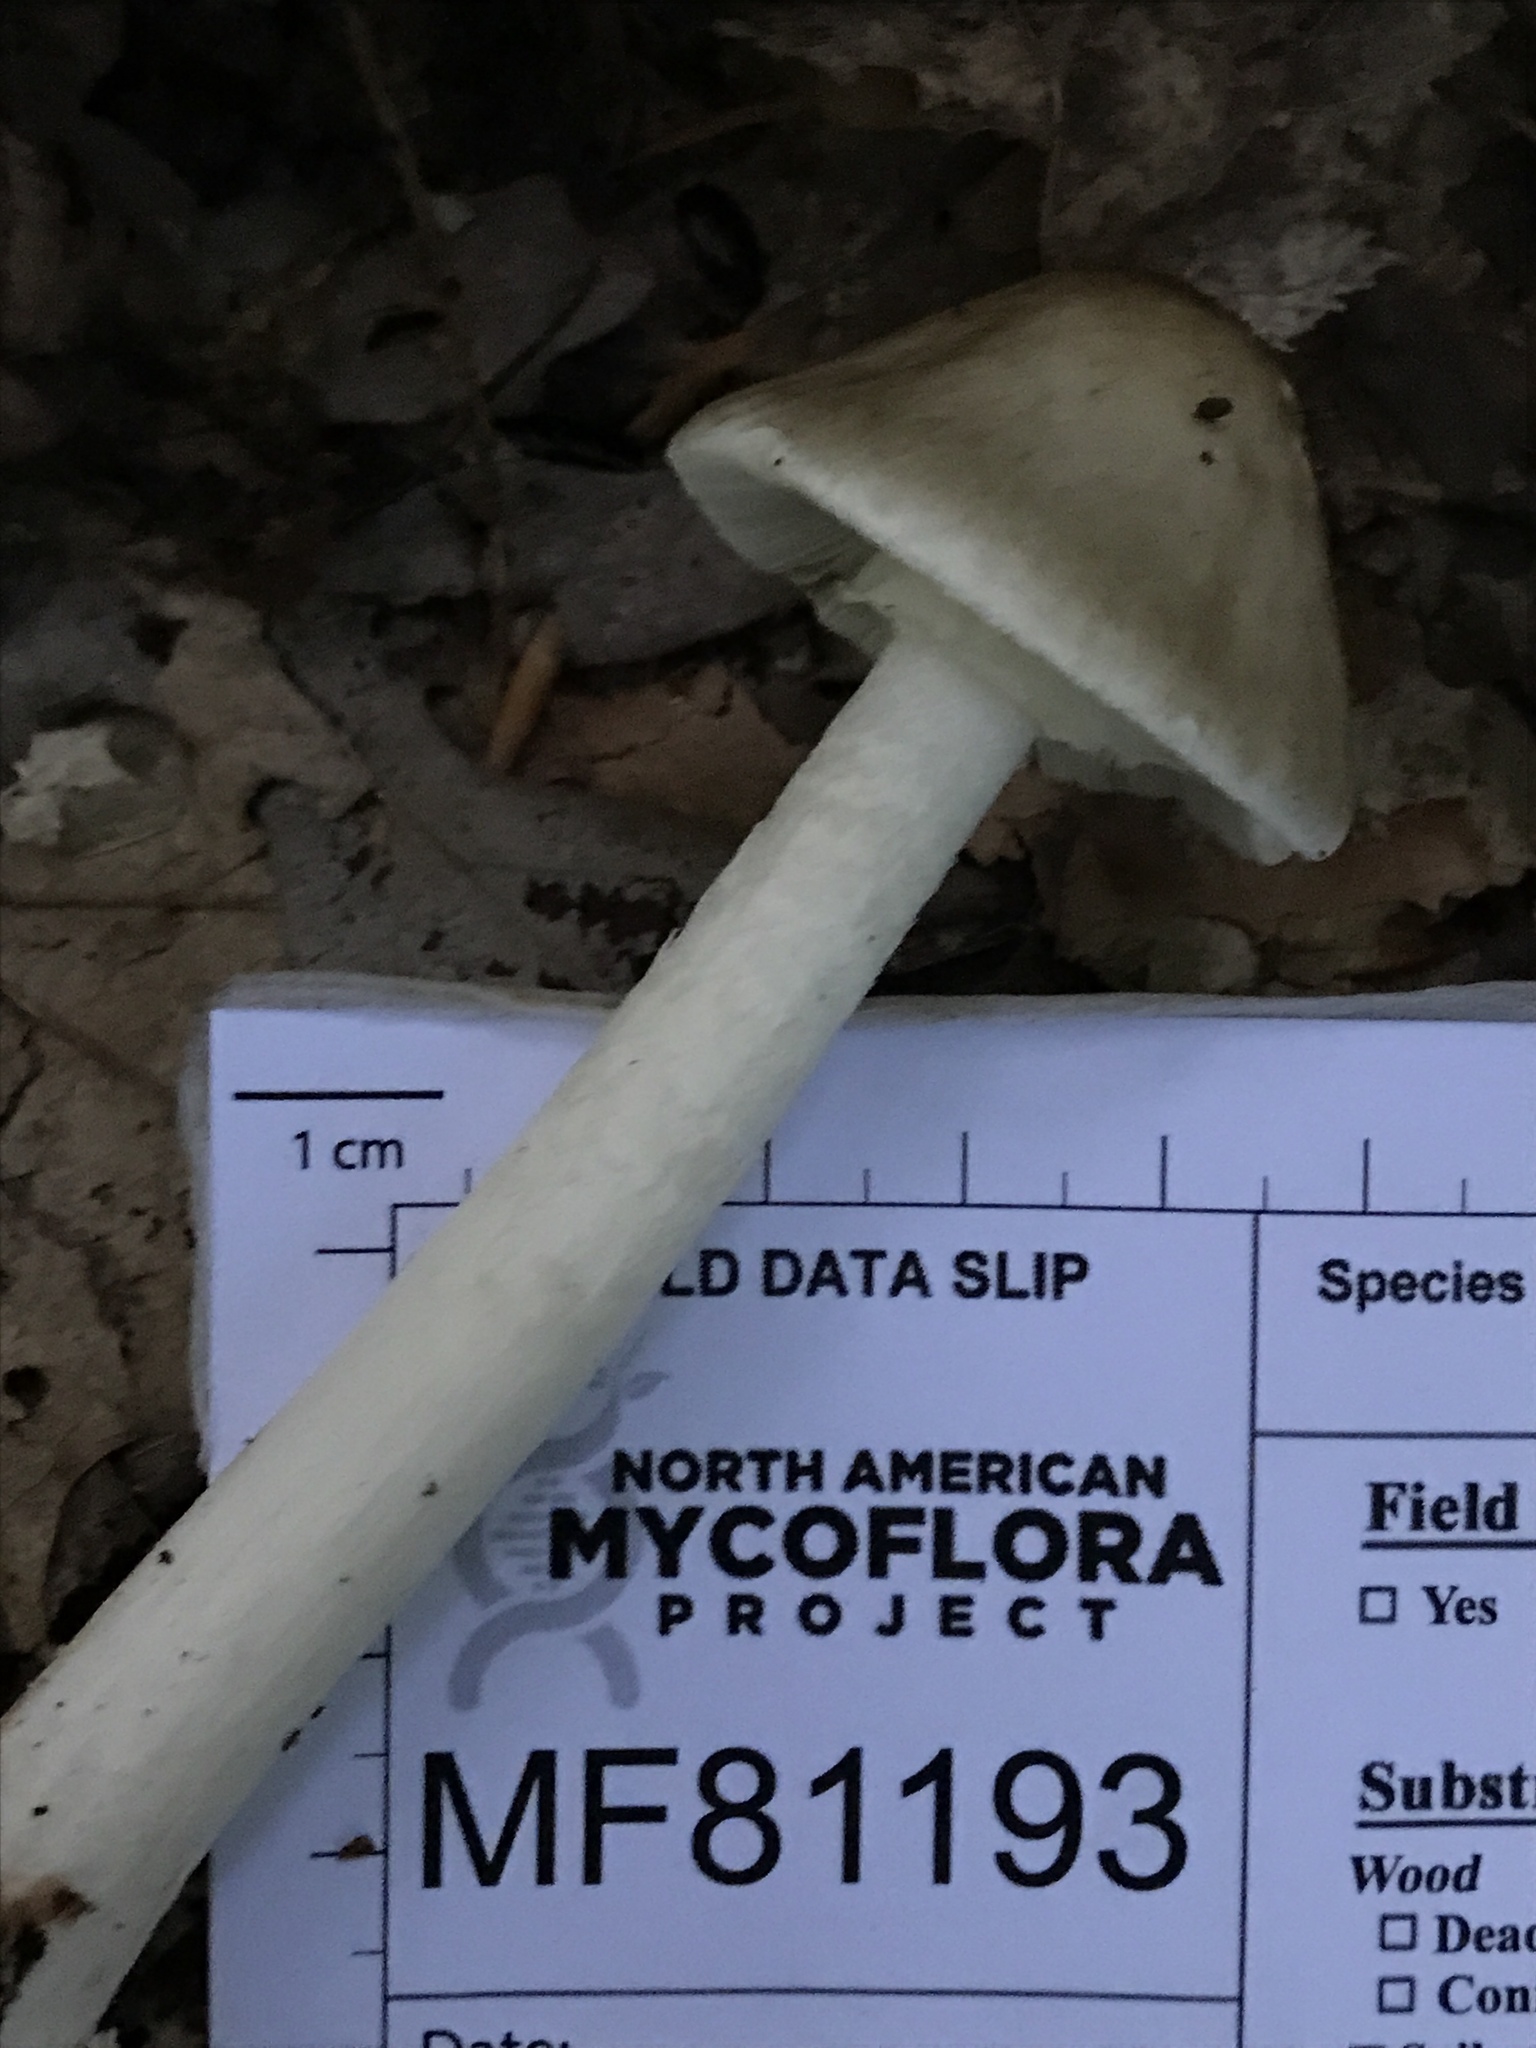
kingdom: Fungi
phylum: Basidiomycota
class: Agaricomycetes
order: Agaricales
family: Amanitaceae
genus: Amanita
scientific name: Amanita brunnescens
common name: Brown american star-footed amanita
